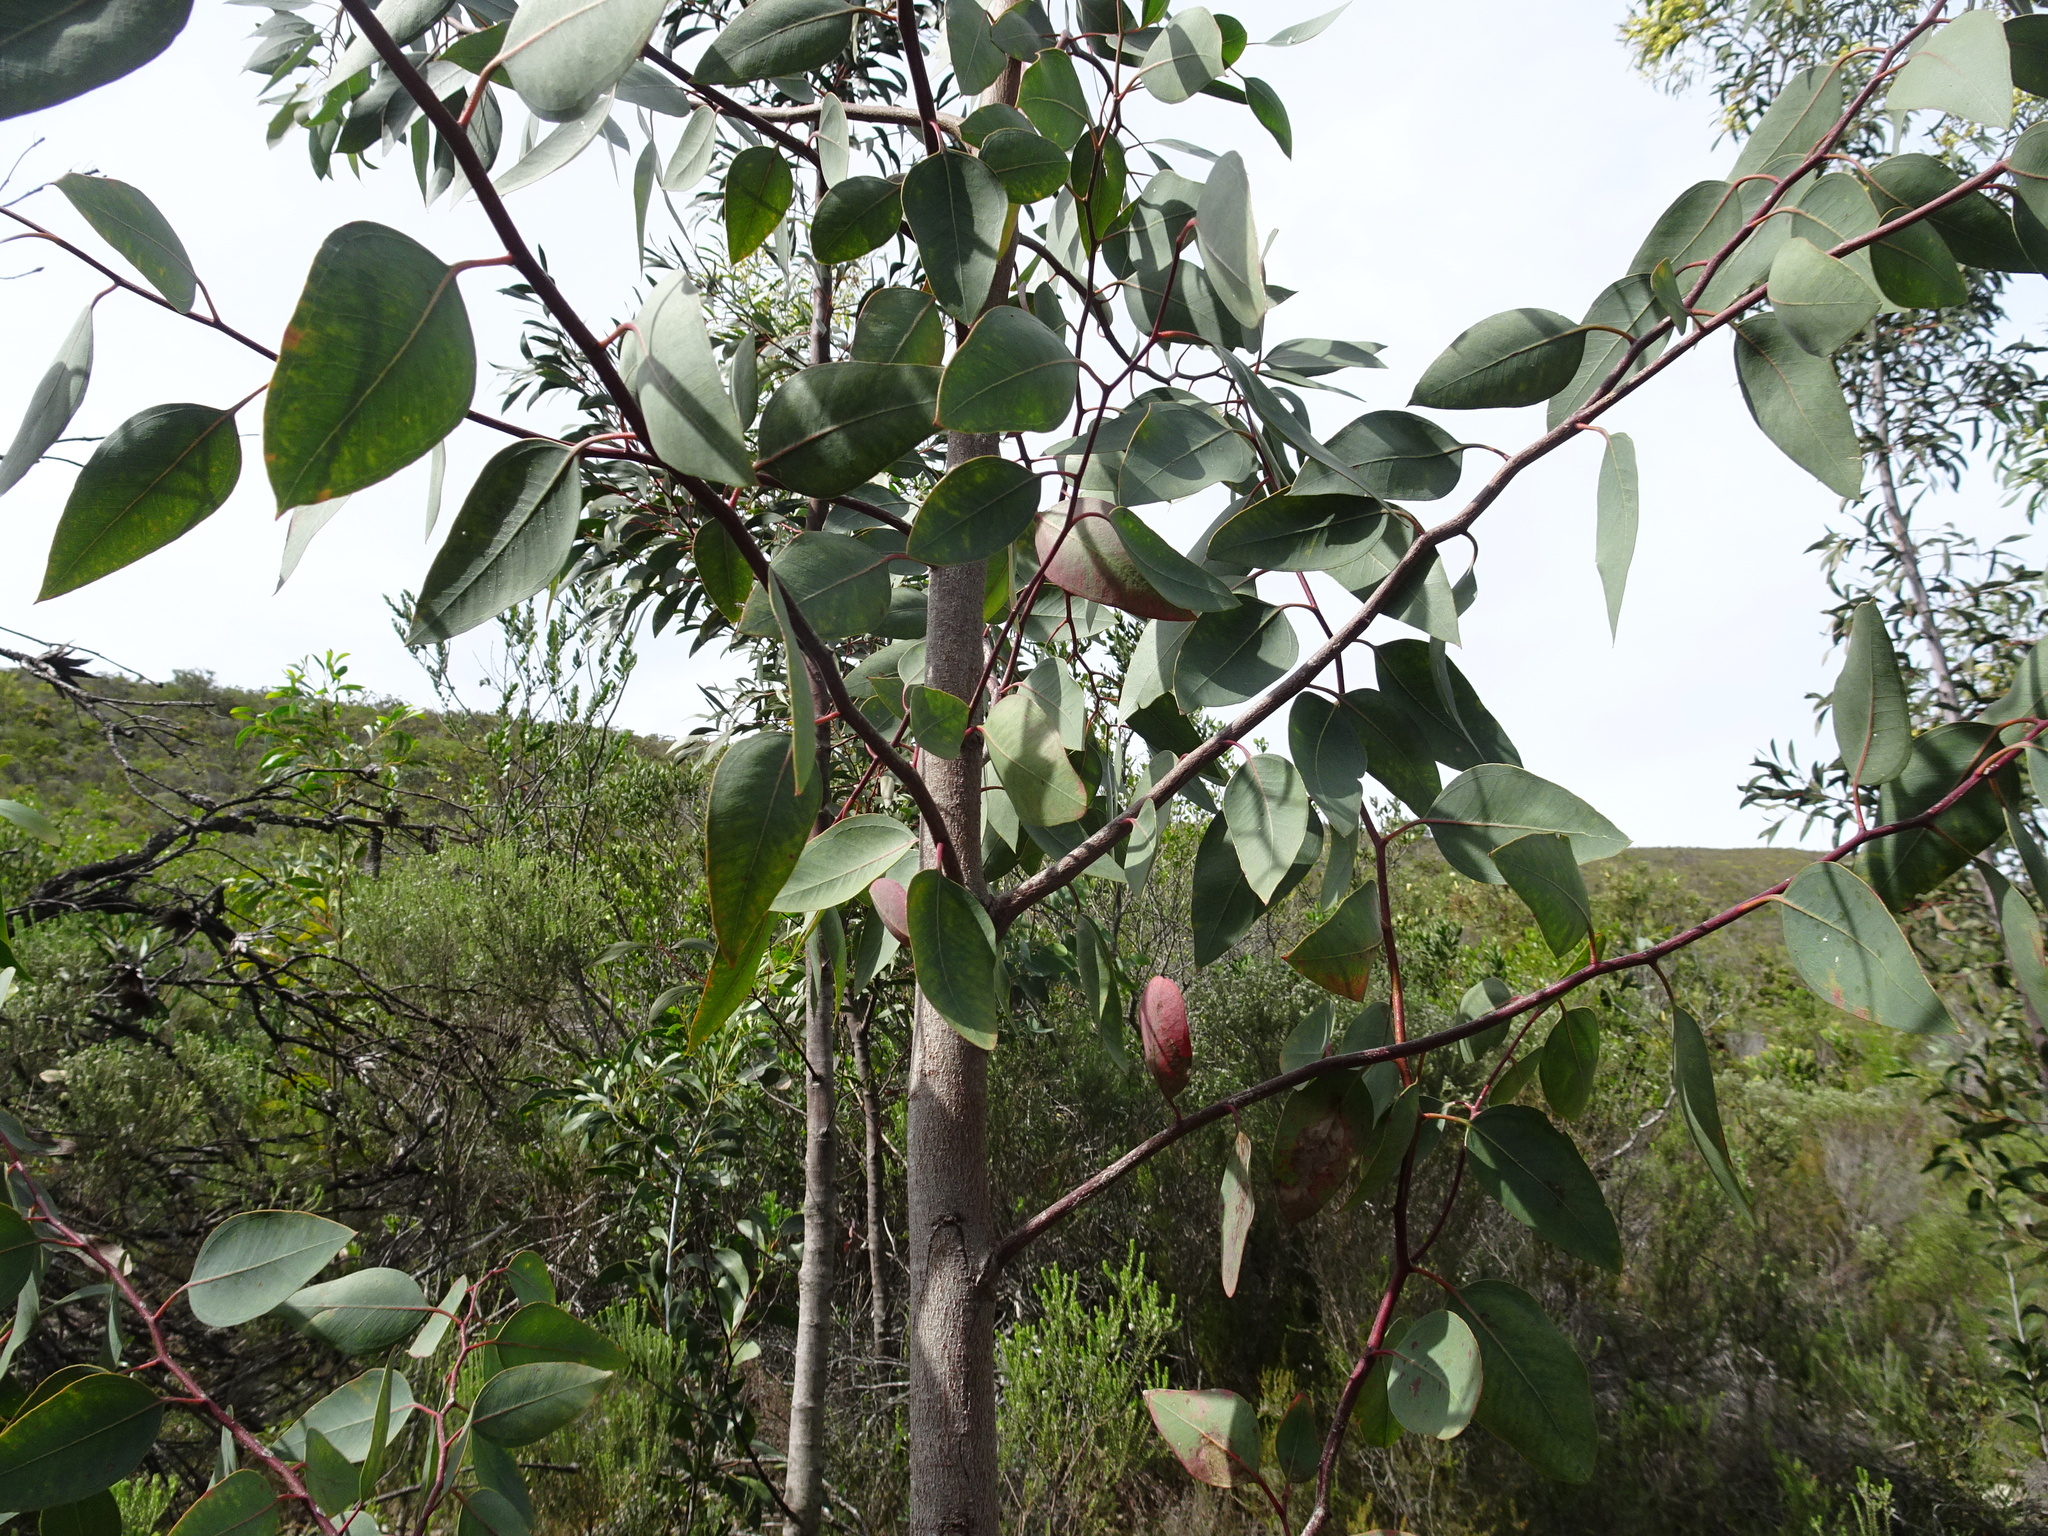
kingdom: Plantae
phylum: Tracheophyta
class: Magnoliopsida
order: Myrtales
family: Myrtaceae
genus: Eucalyptus
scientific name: Eucalyptus camaldulensis
